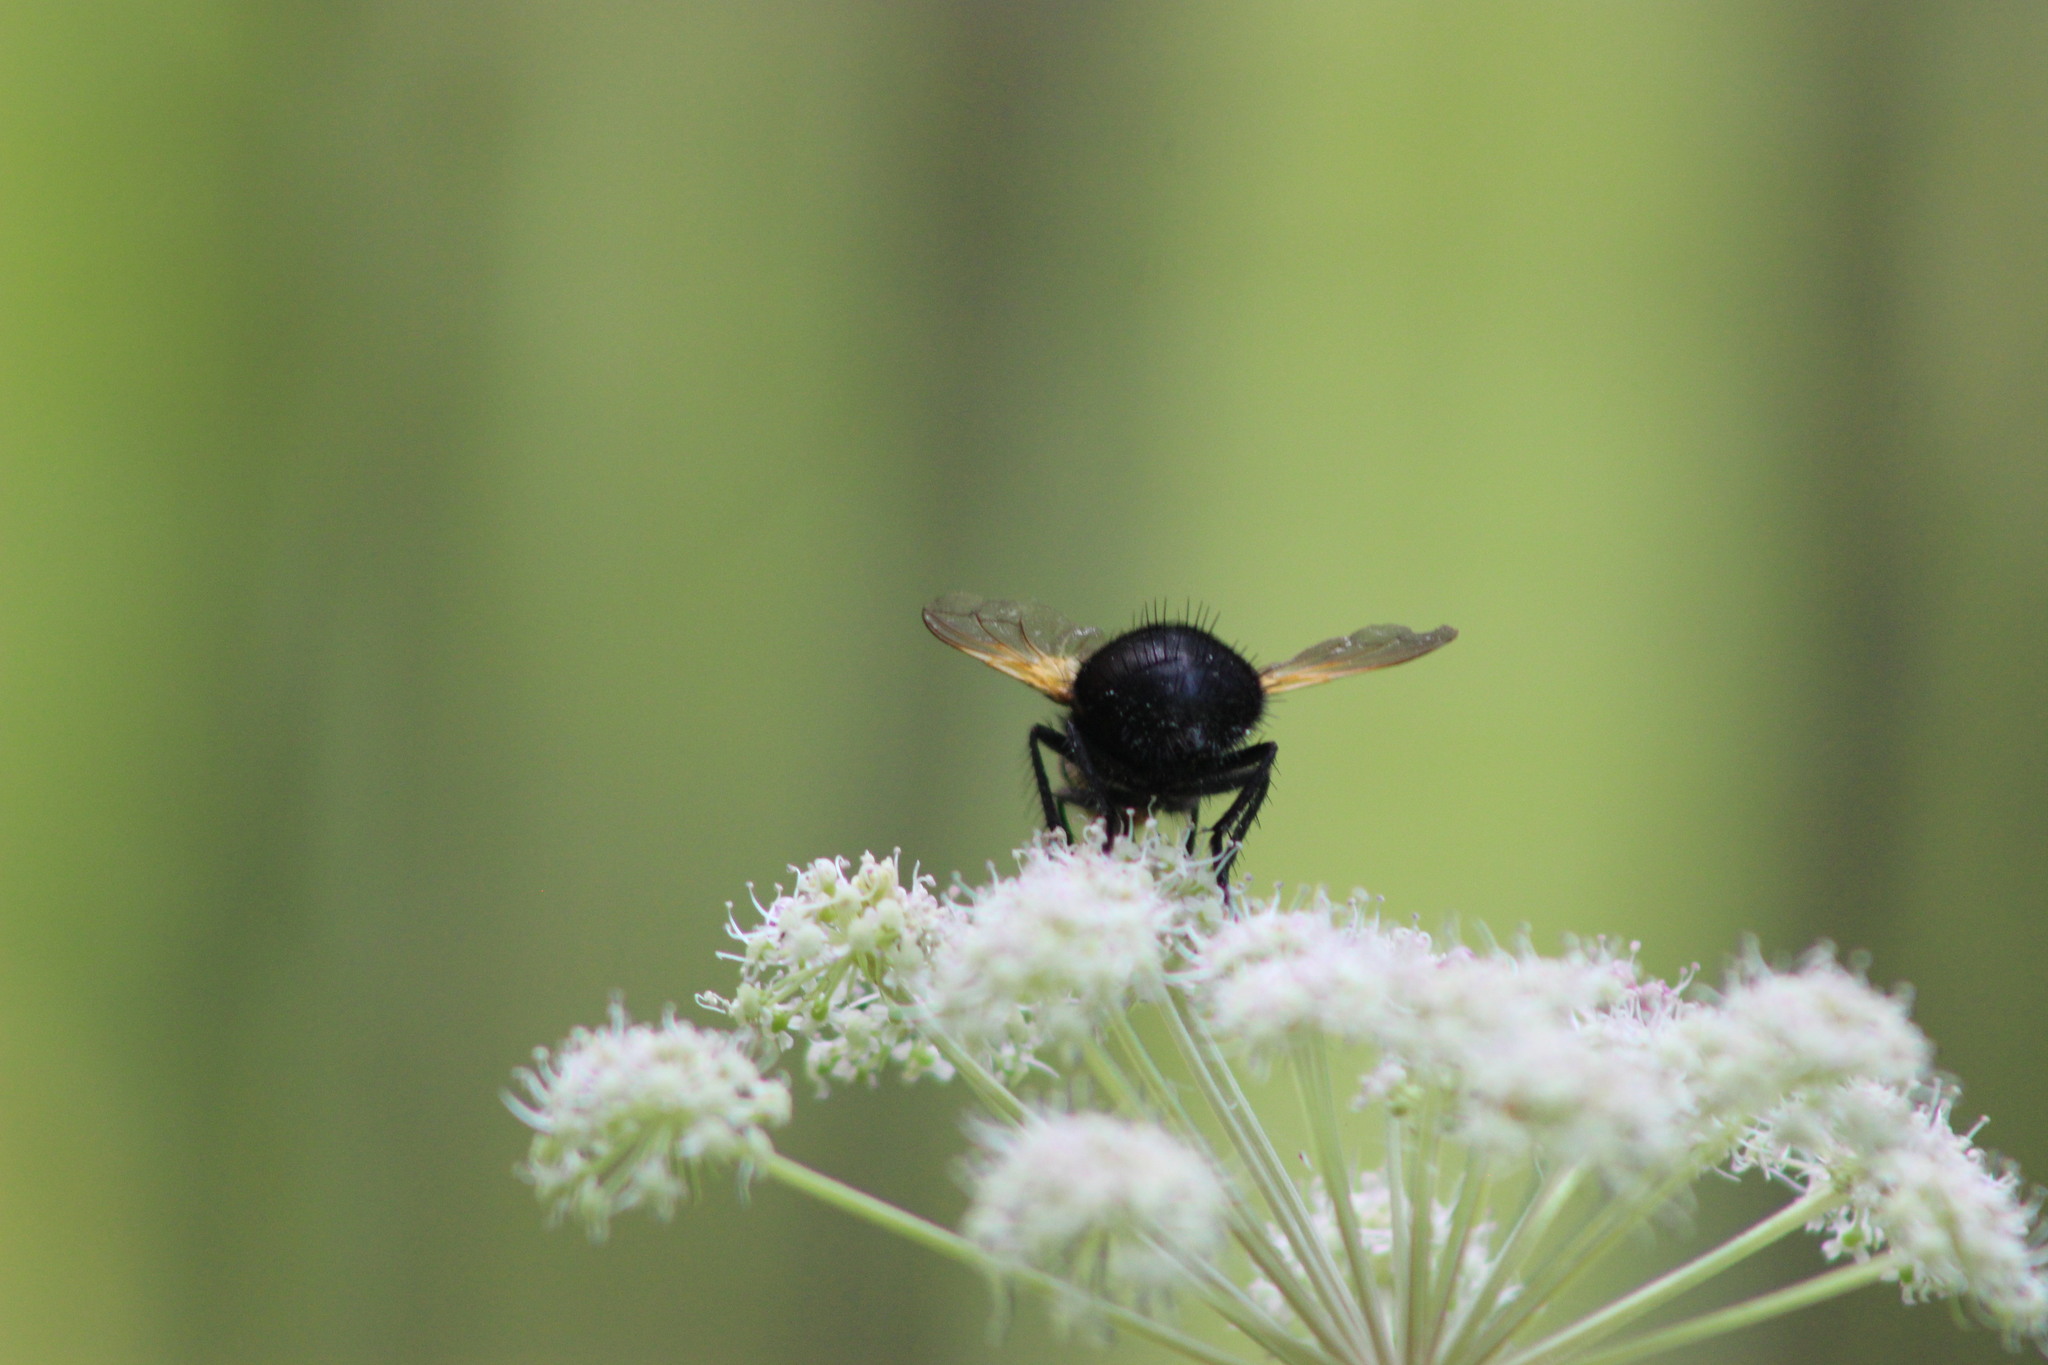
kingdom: Animalia
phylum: Arthropoda
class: Insecta
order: Diptera
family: Tachinidae
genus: Tachina
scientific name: Tachina grossa
